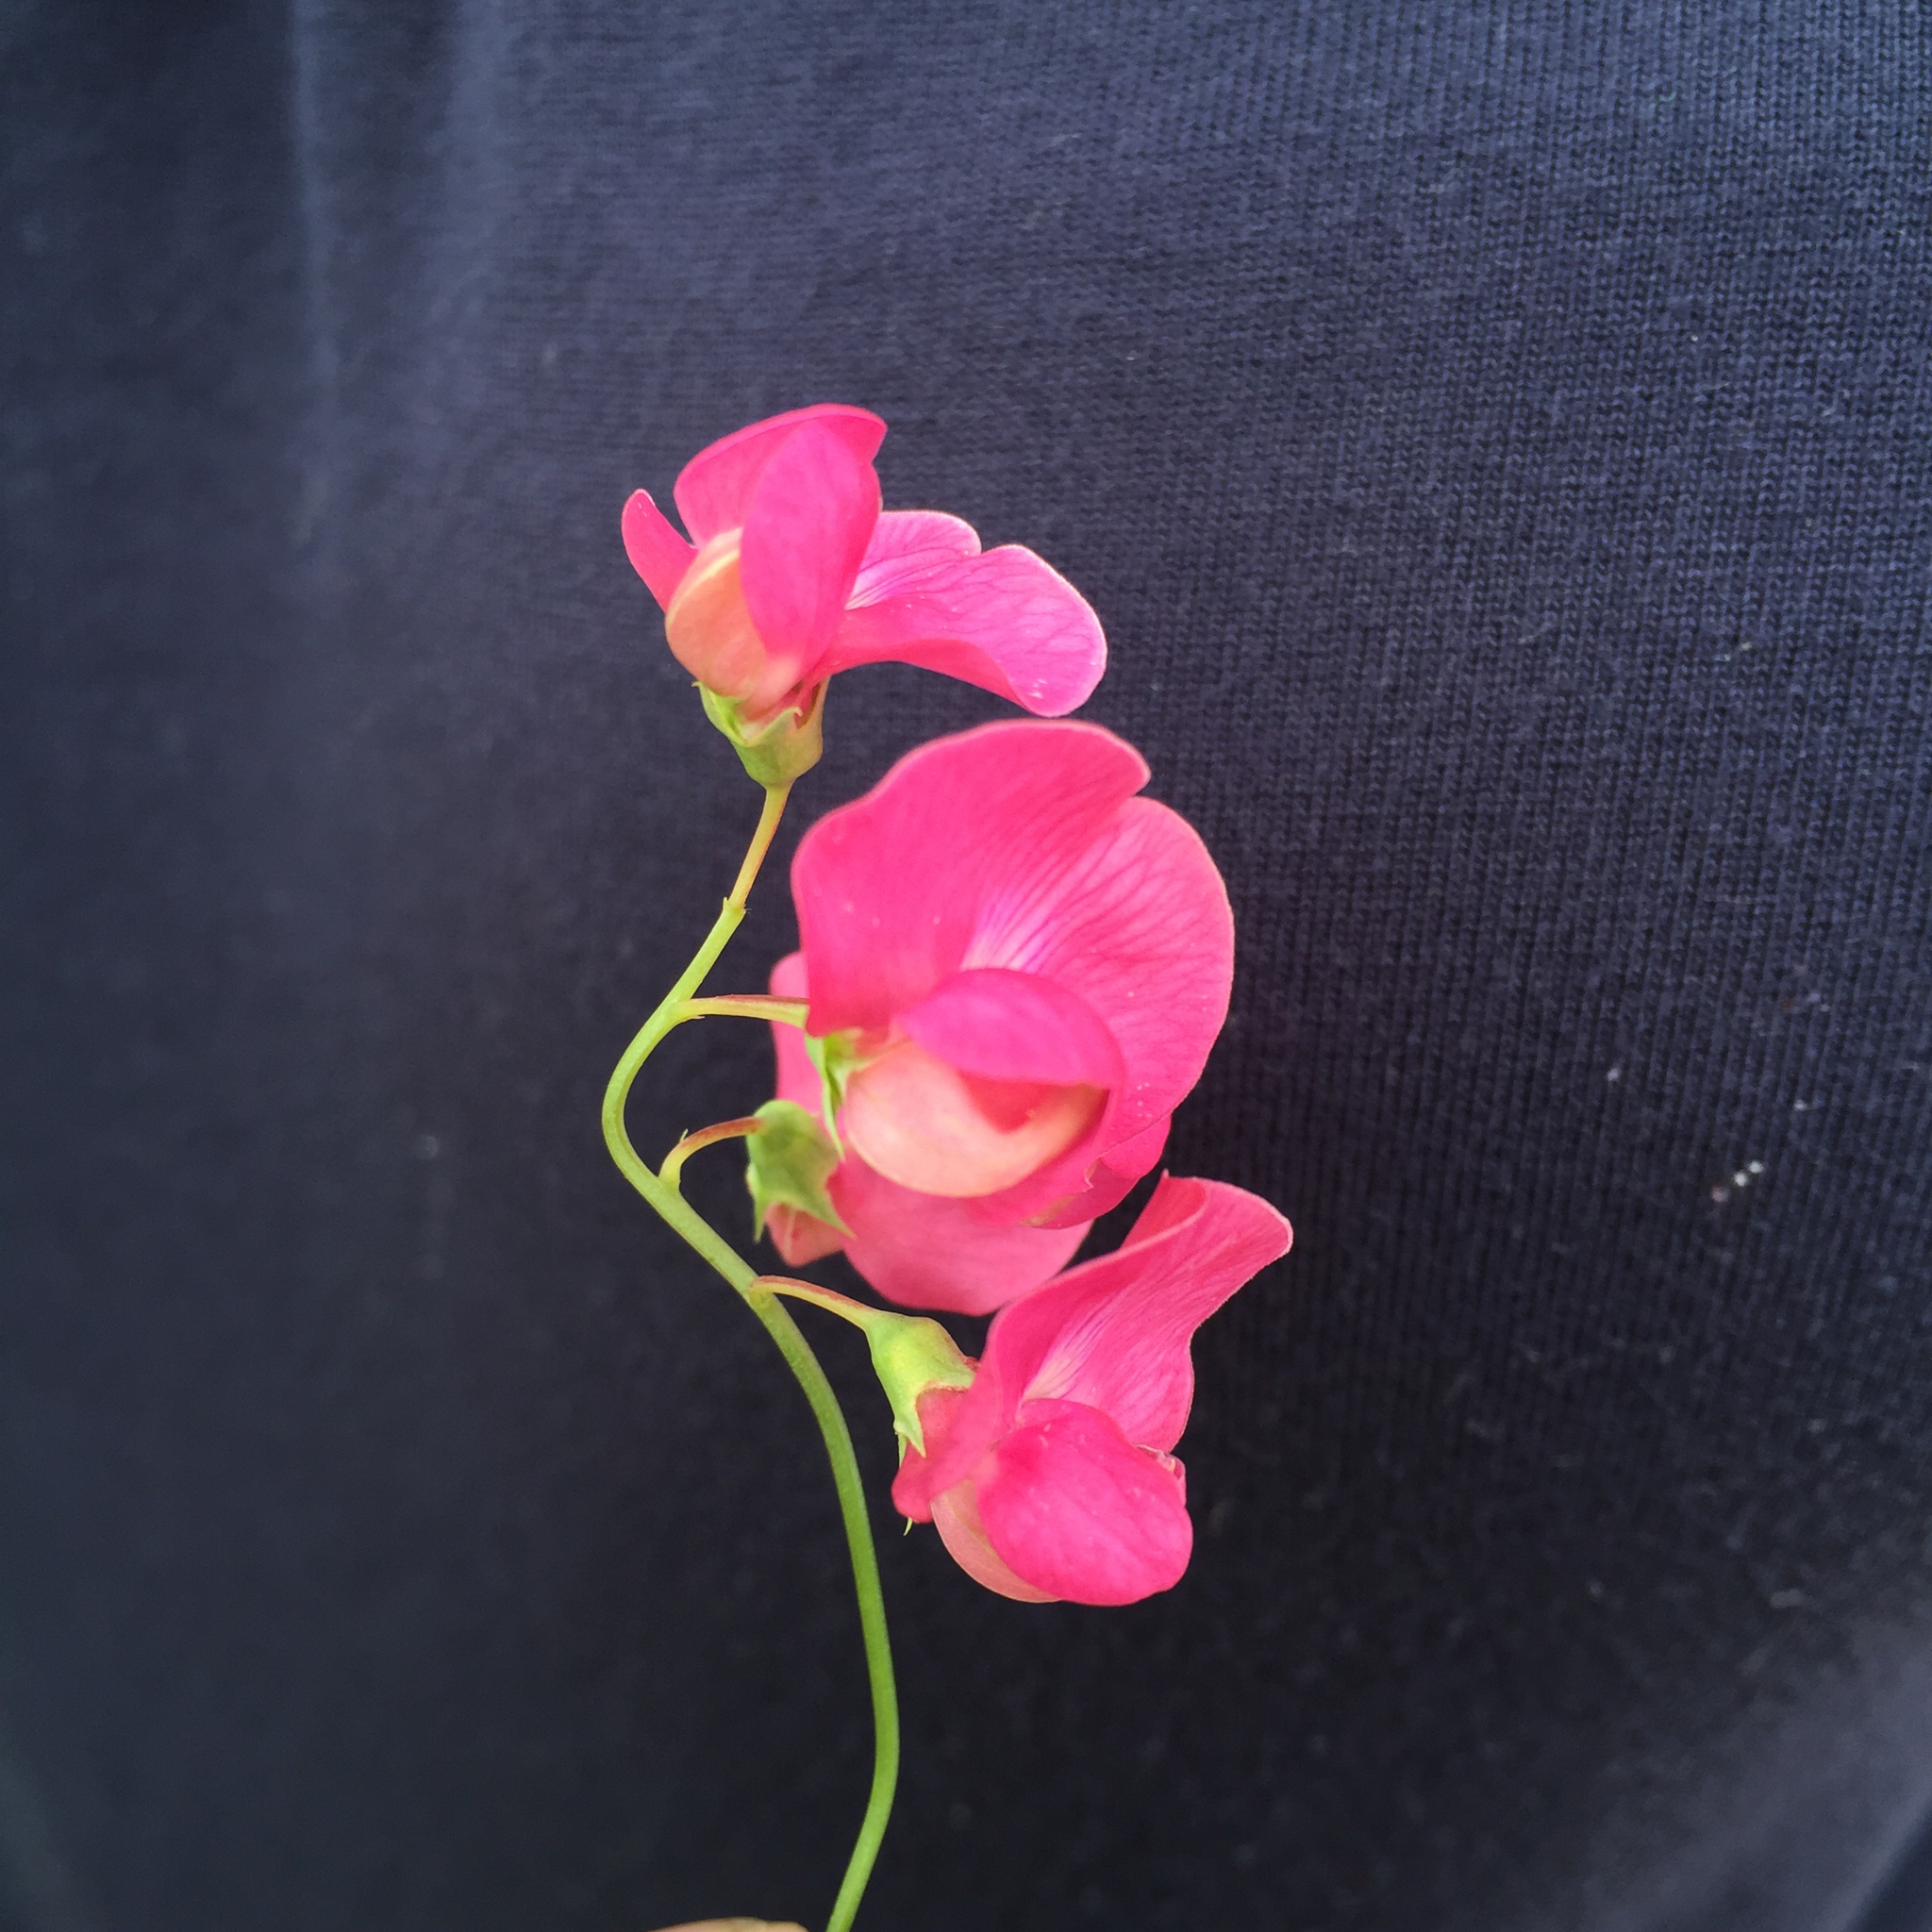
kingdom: Plantae
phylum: Tracheophyta
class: Magnoliopsida
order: Fabales
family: Fabaceae
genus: Lathyrus
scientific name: Lathyrus tuberosus
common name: Tuberous pea
